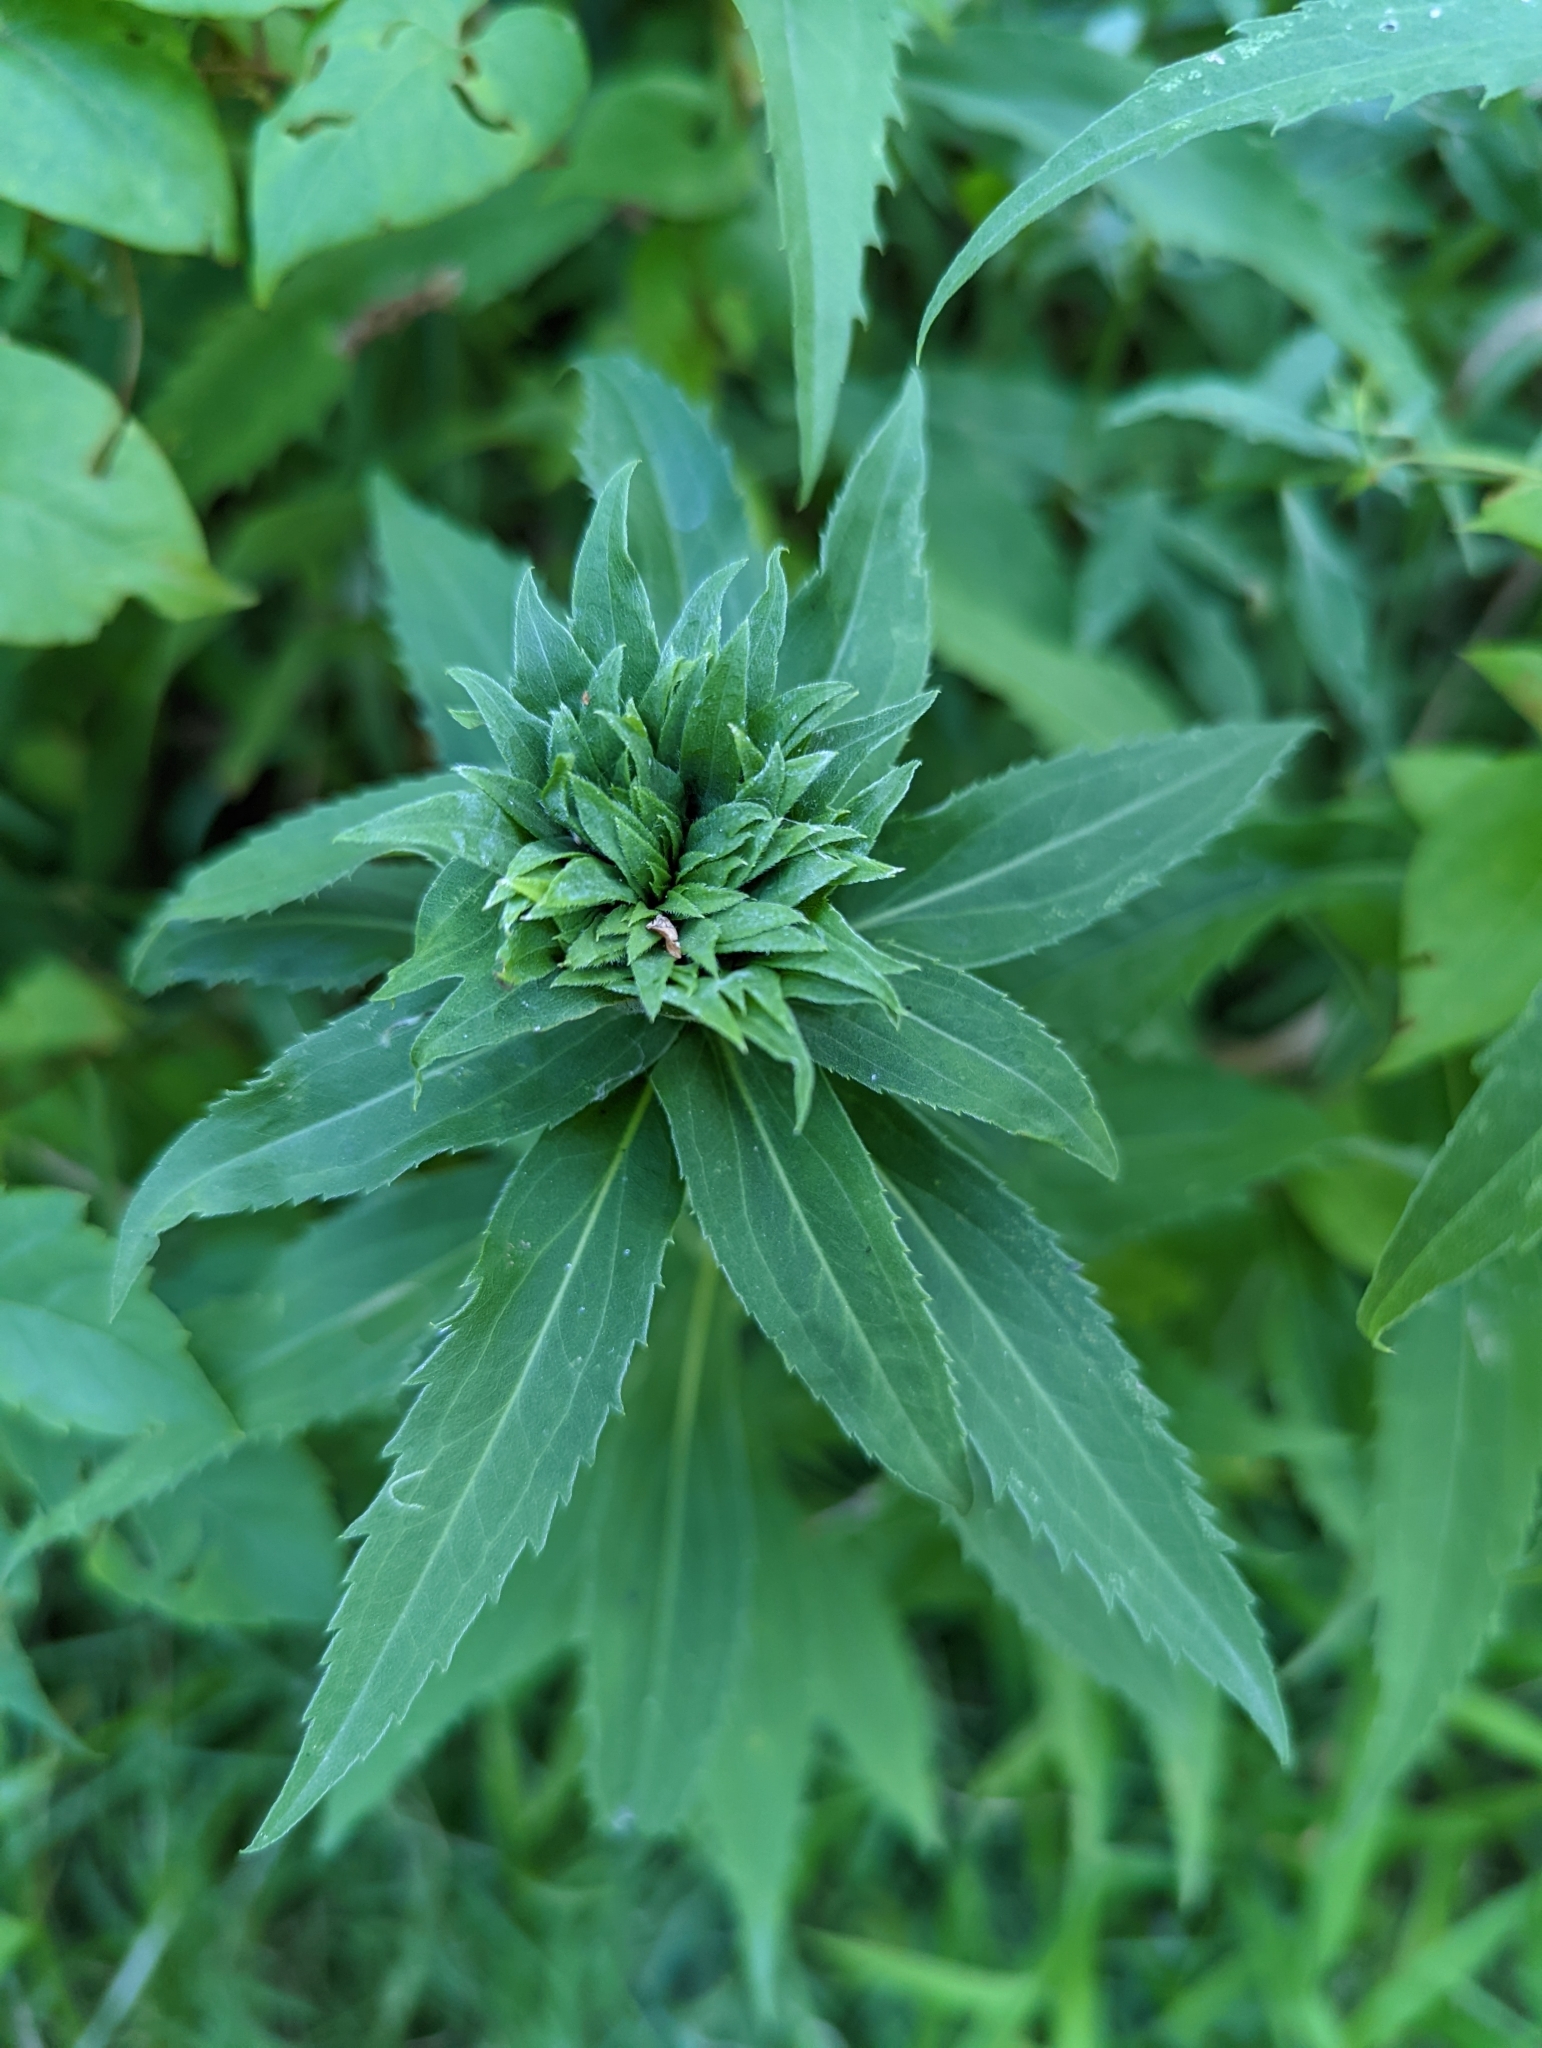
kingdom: Animalia
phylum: Arthropoda
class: Insecta
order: Diptera
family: Cecidomyiidae
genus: Rhopalomyia
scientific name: Rhopalomyia capitata
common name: Giant goldenrod bunch gall midge
